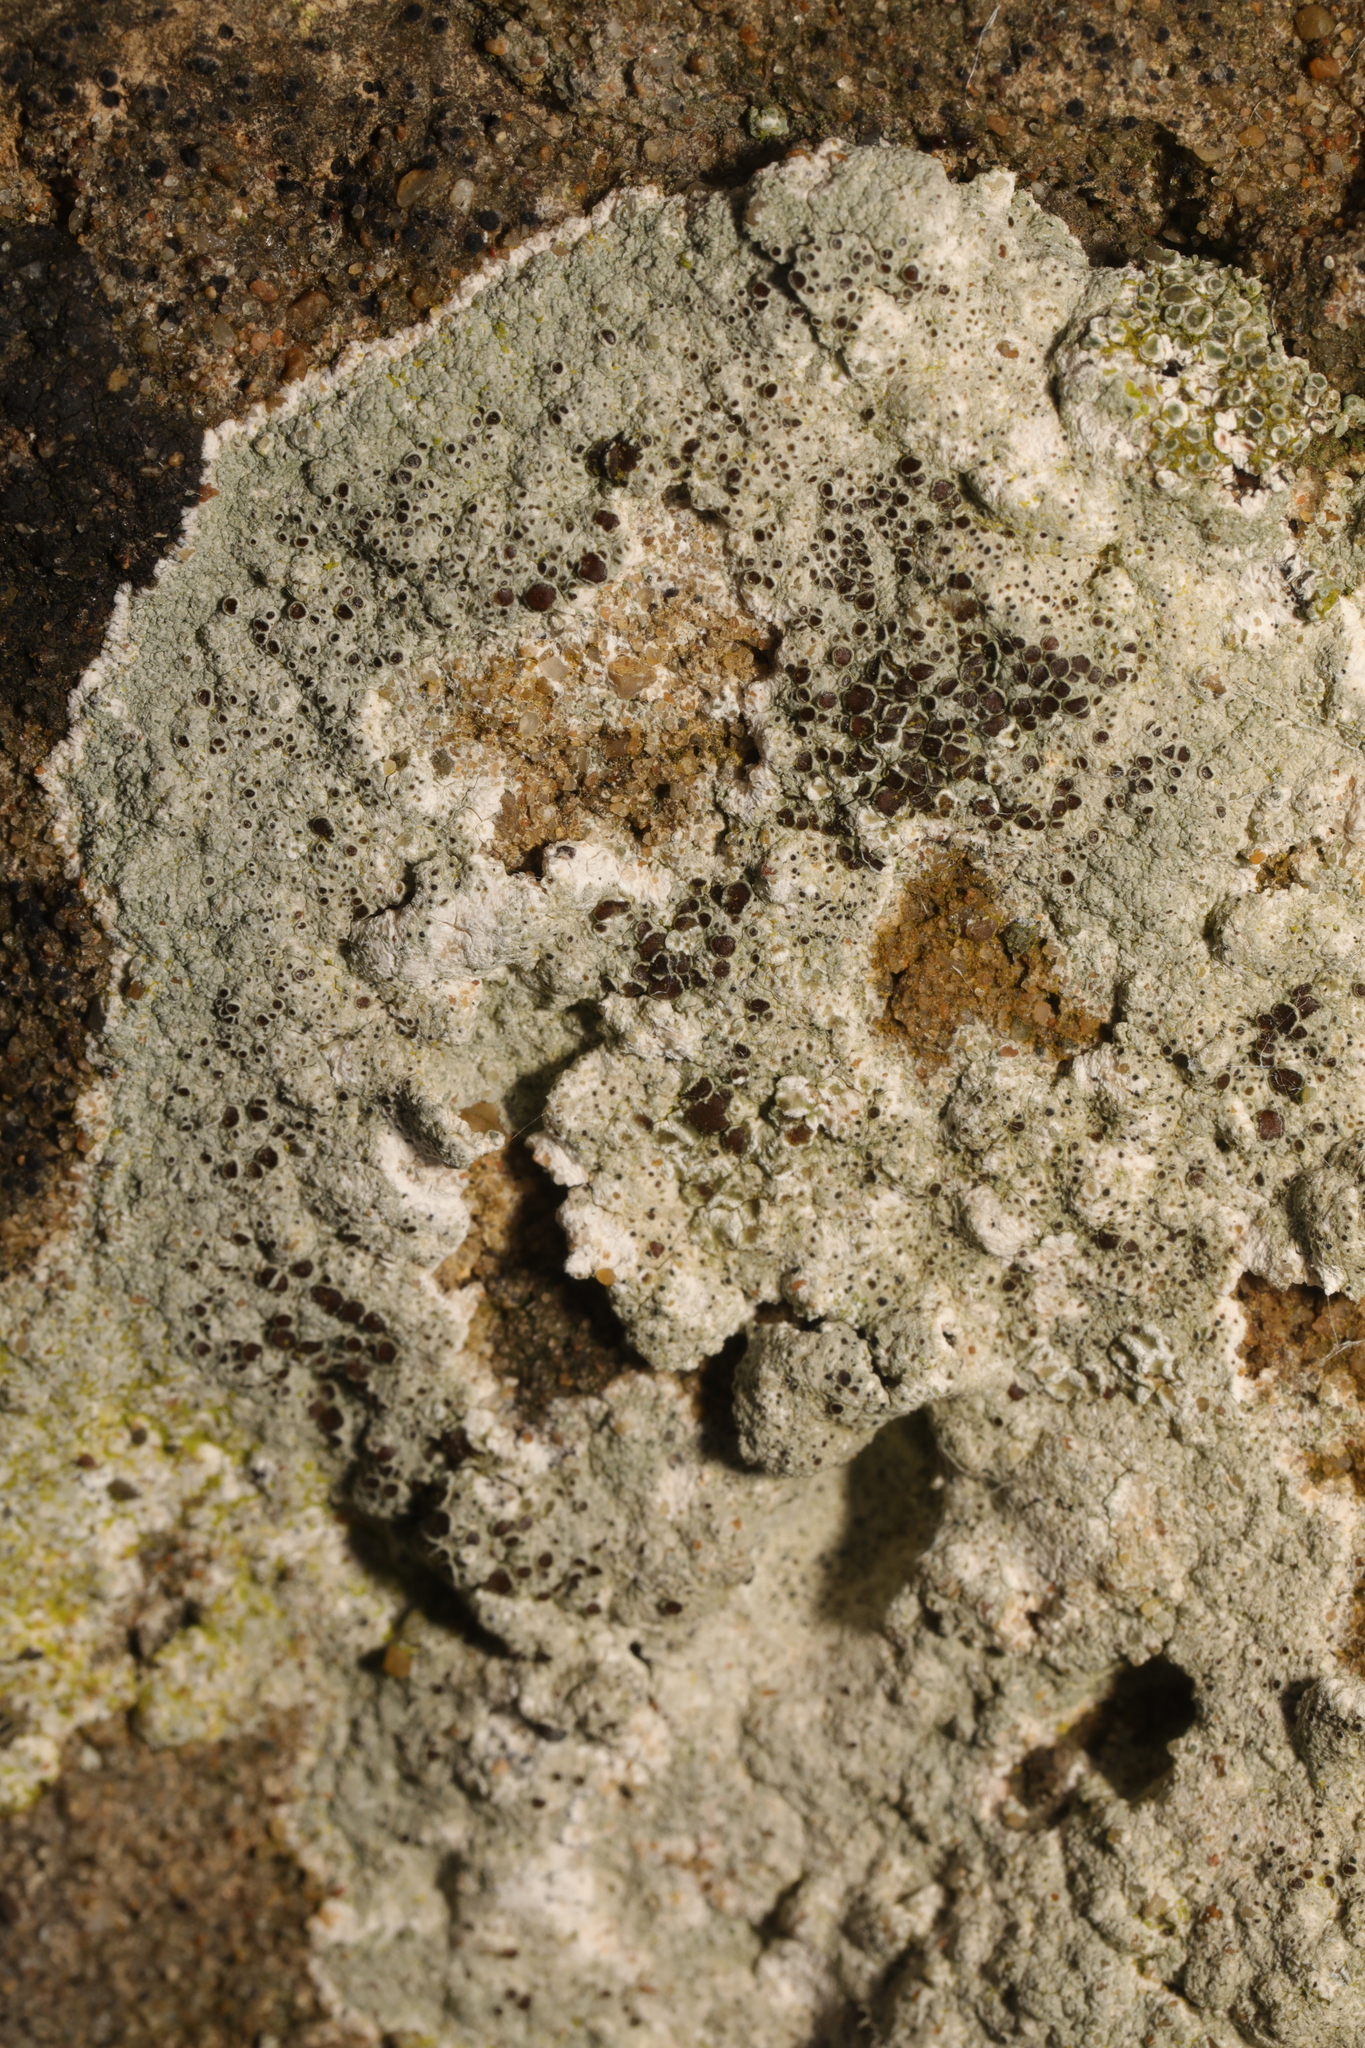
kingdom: Fungi
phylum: Ascomycota
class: Lecanoromycetes
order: Lecanorales
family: Lecanoraceae
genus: Lecanora
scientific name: Lecanora campestris
